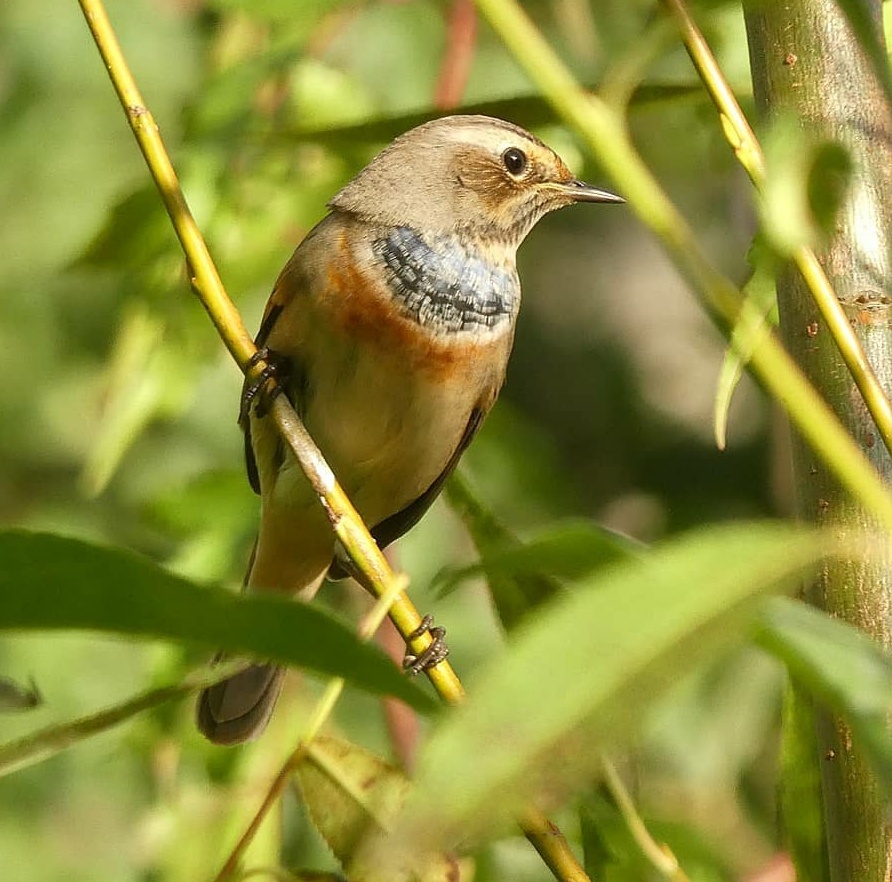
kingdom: Animalia
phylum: Chordata
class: Aves
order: Passeriformes
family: Muscicapidae
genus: Luscinia
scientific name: Luscinia svecica
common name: Bluethroat
